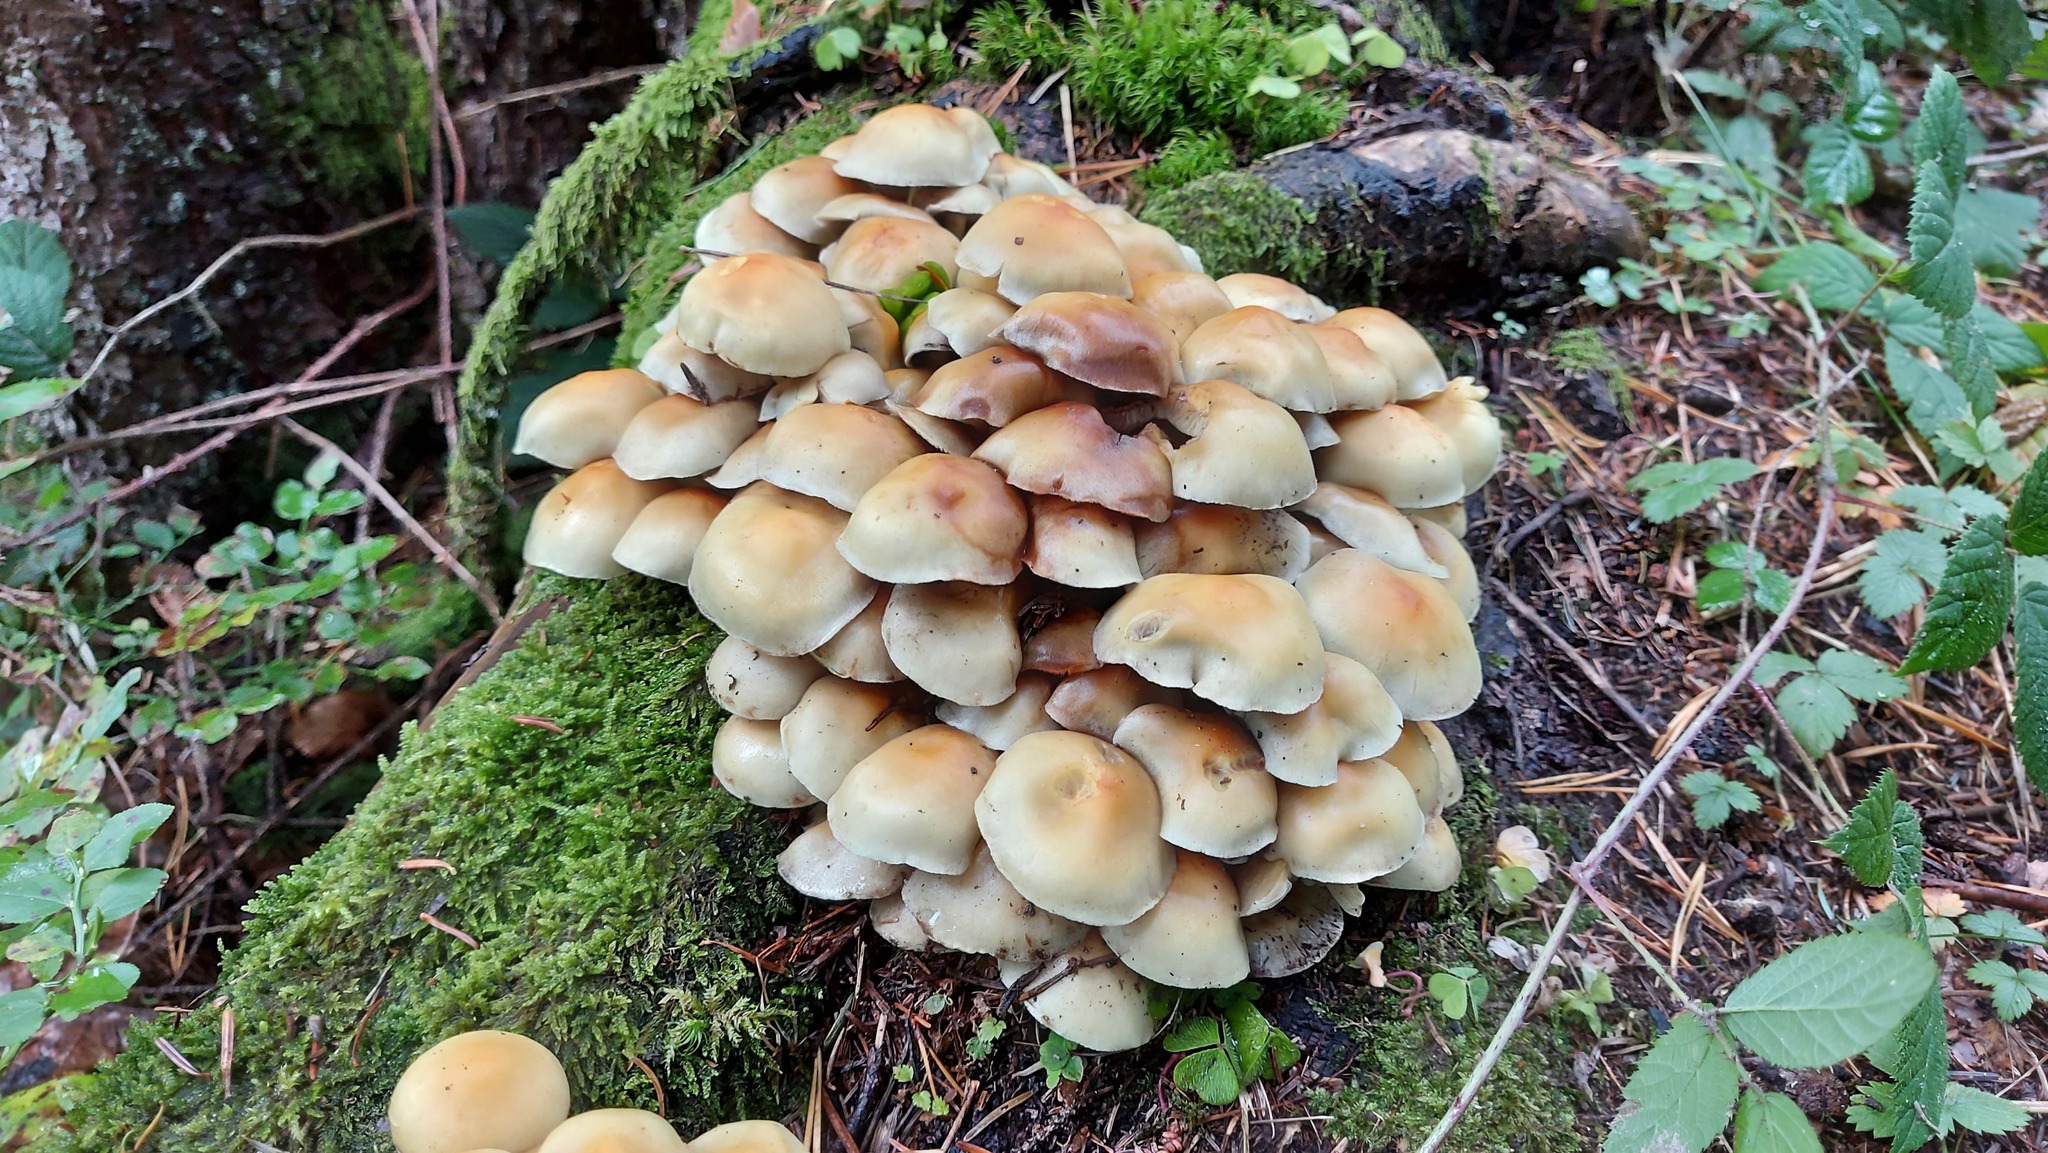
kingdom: Fungi
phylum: Basidiomycota
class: Agaricomycetes
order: Agaricales
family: Strophariaceae
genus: Hypholoma
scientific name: Hypholoma capnoides
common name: Conifer tuft
